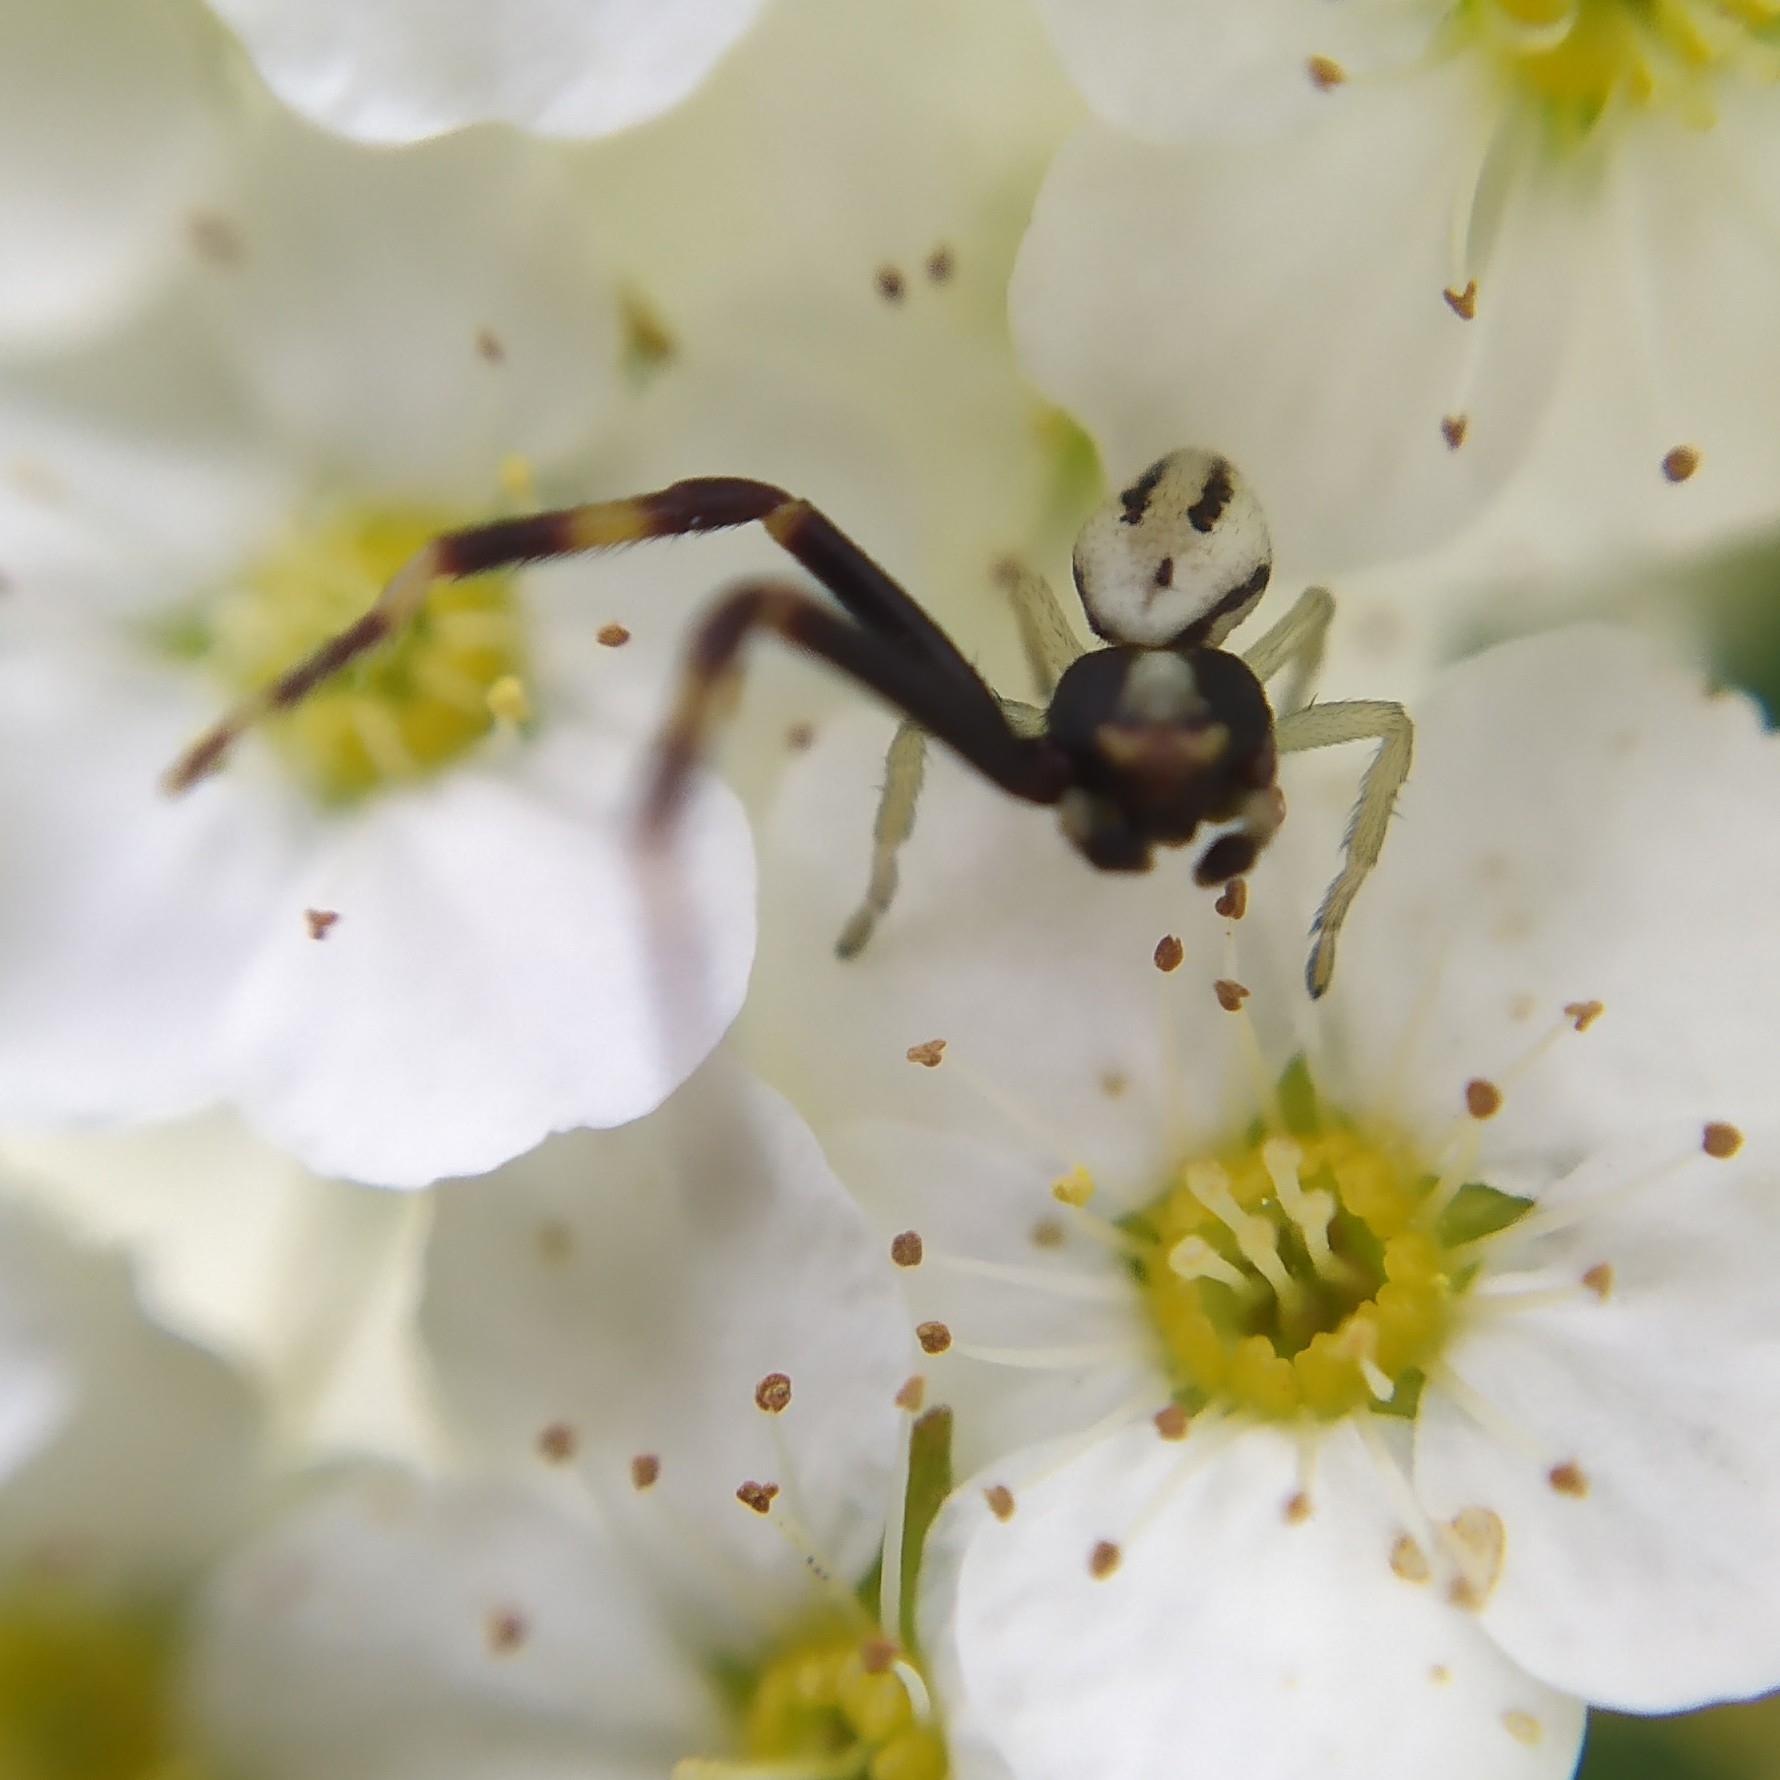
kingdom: Animalia
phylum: Arthropoda
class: Arachnida
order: Araneae
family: Thomisidae
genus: Misumena
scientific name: Misumena vatia
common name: Goldenrod crab spider
